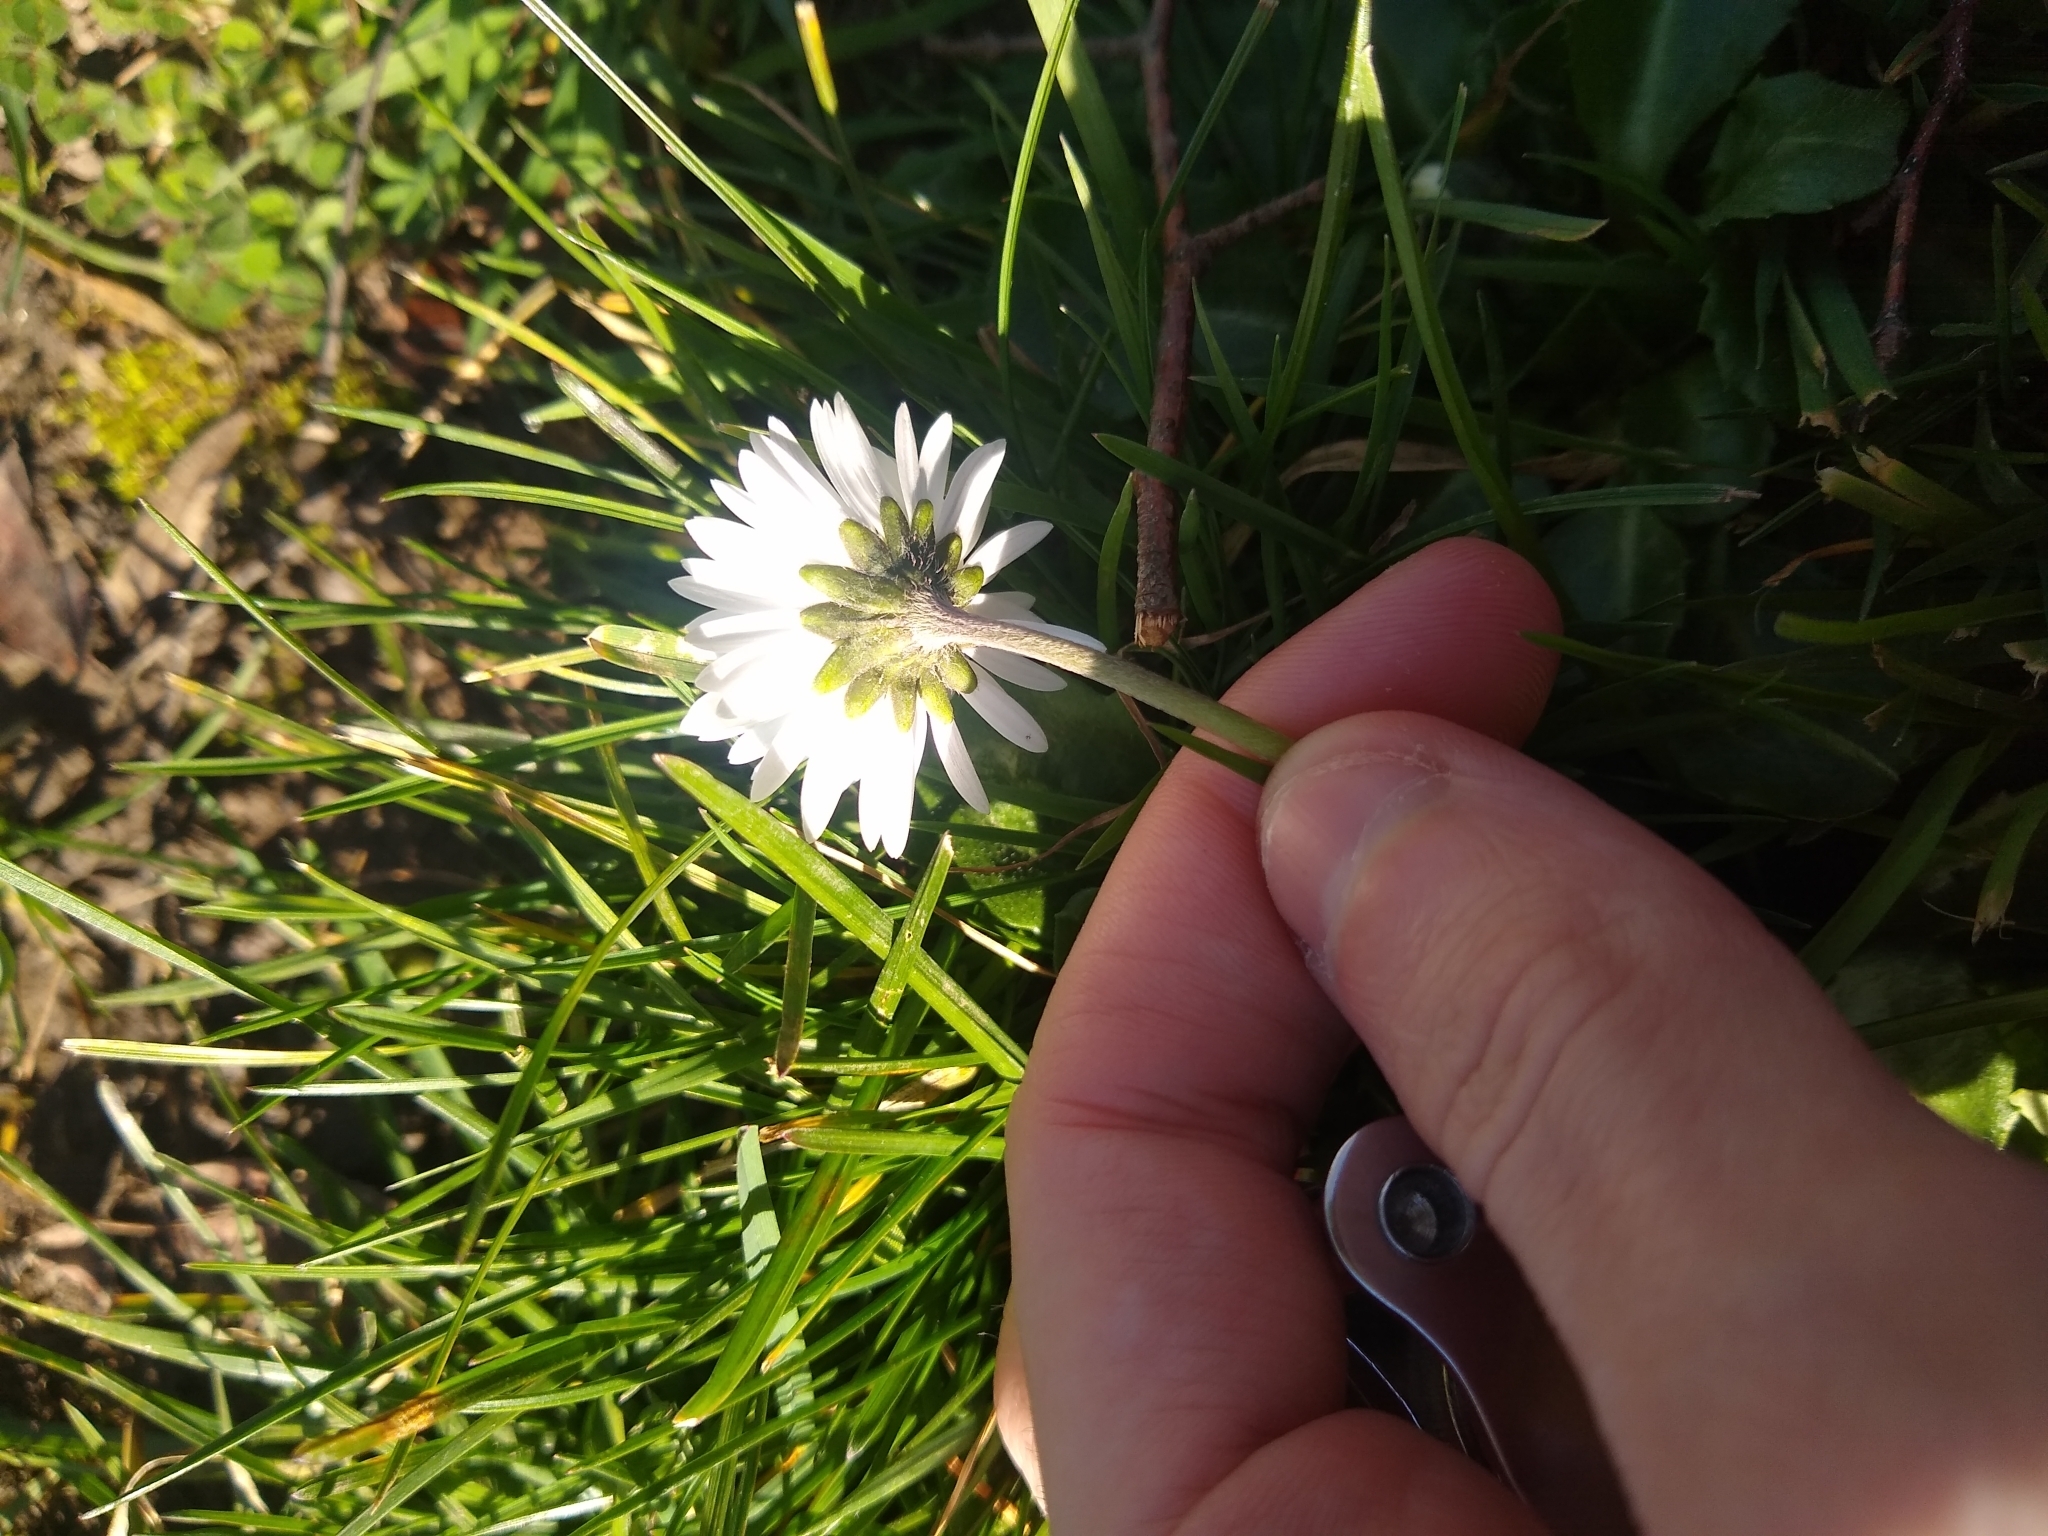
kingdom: Plantae
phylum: Tracheophyta
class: Magnoliopsida
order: Asterales
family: Asteraceae
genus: Bellis
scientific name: Bellis perennis
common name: Lawndaisy
